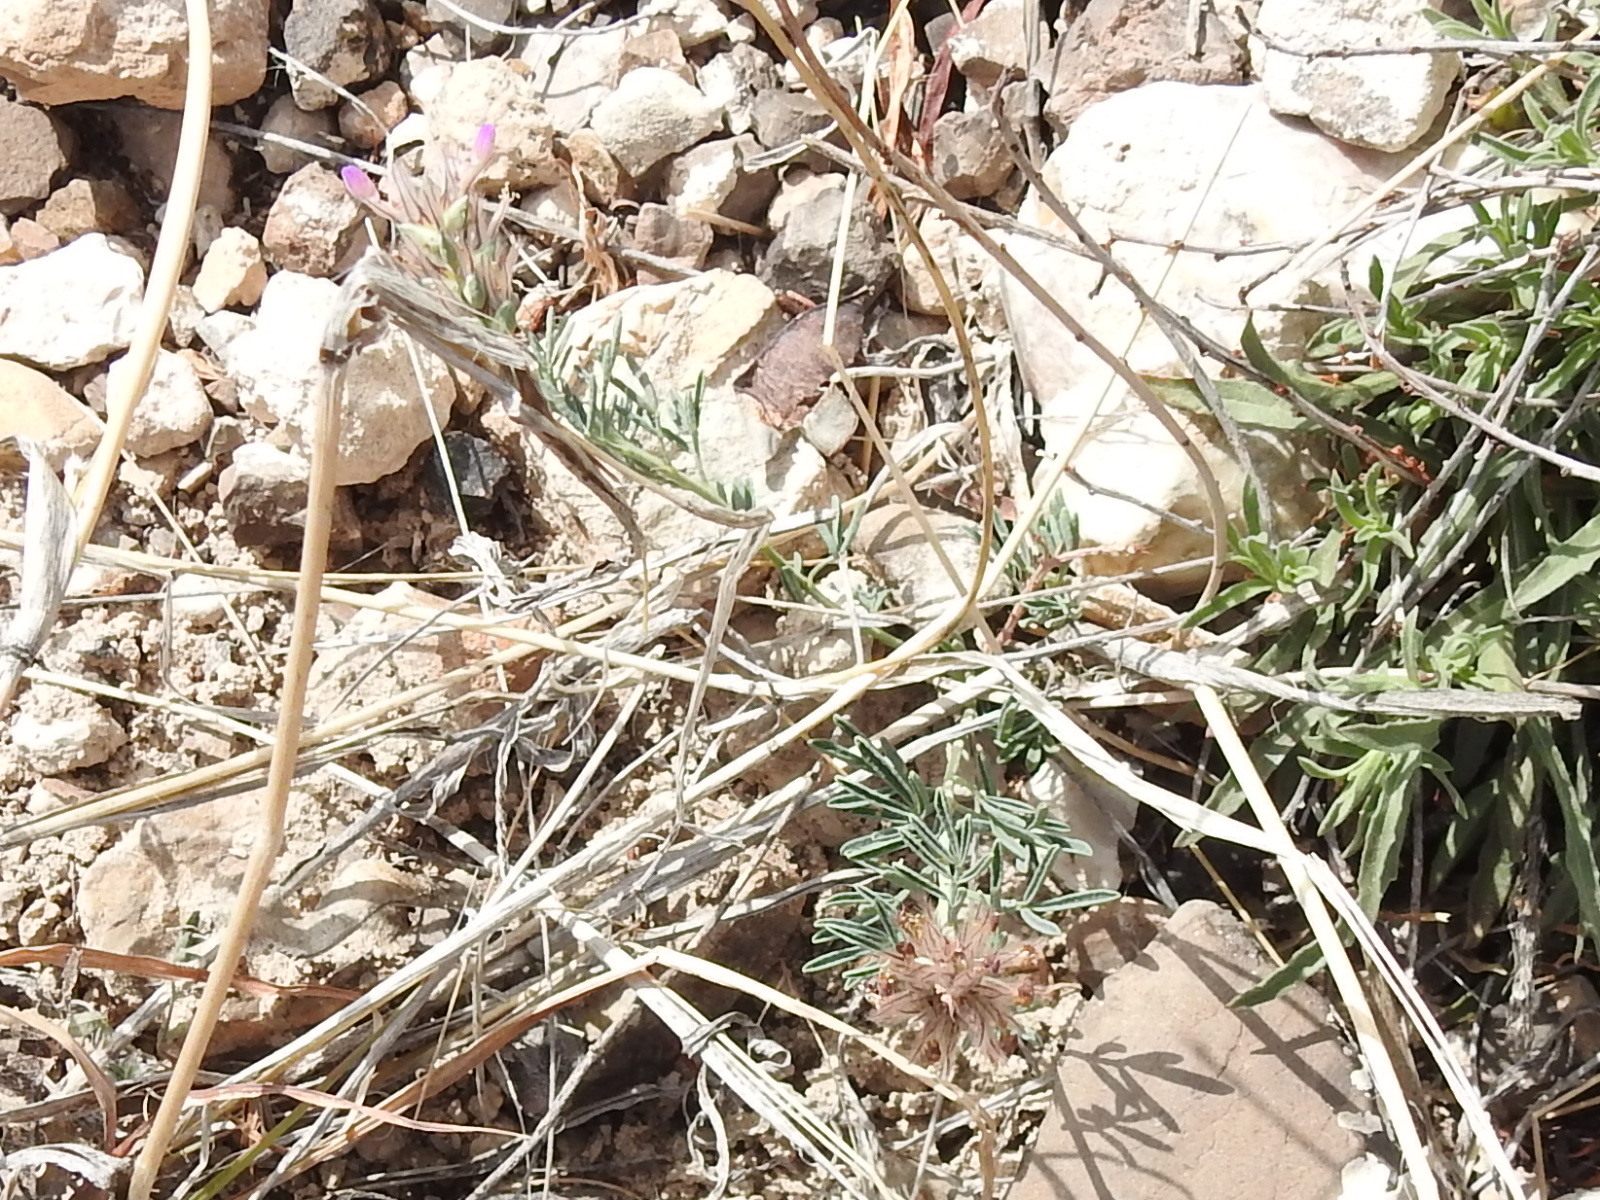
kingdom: Plantae
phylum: Tracheophyta
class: Magnoliopsida
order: Fabales
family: Fabaceae
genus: Dalea
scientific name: Dalea pogonathera
